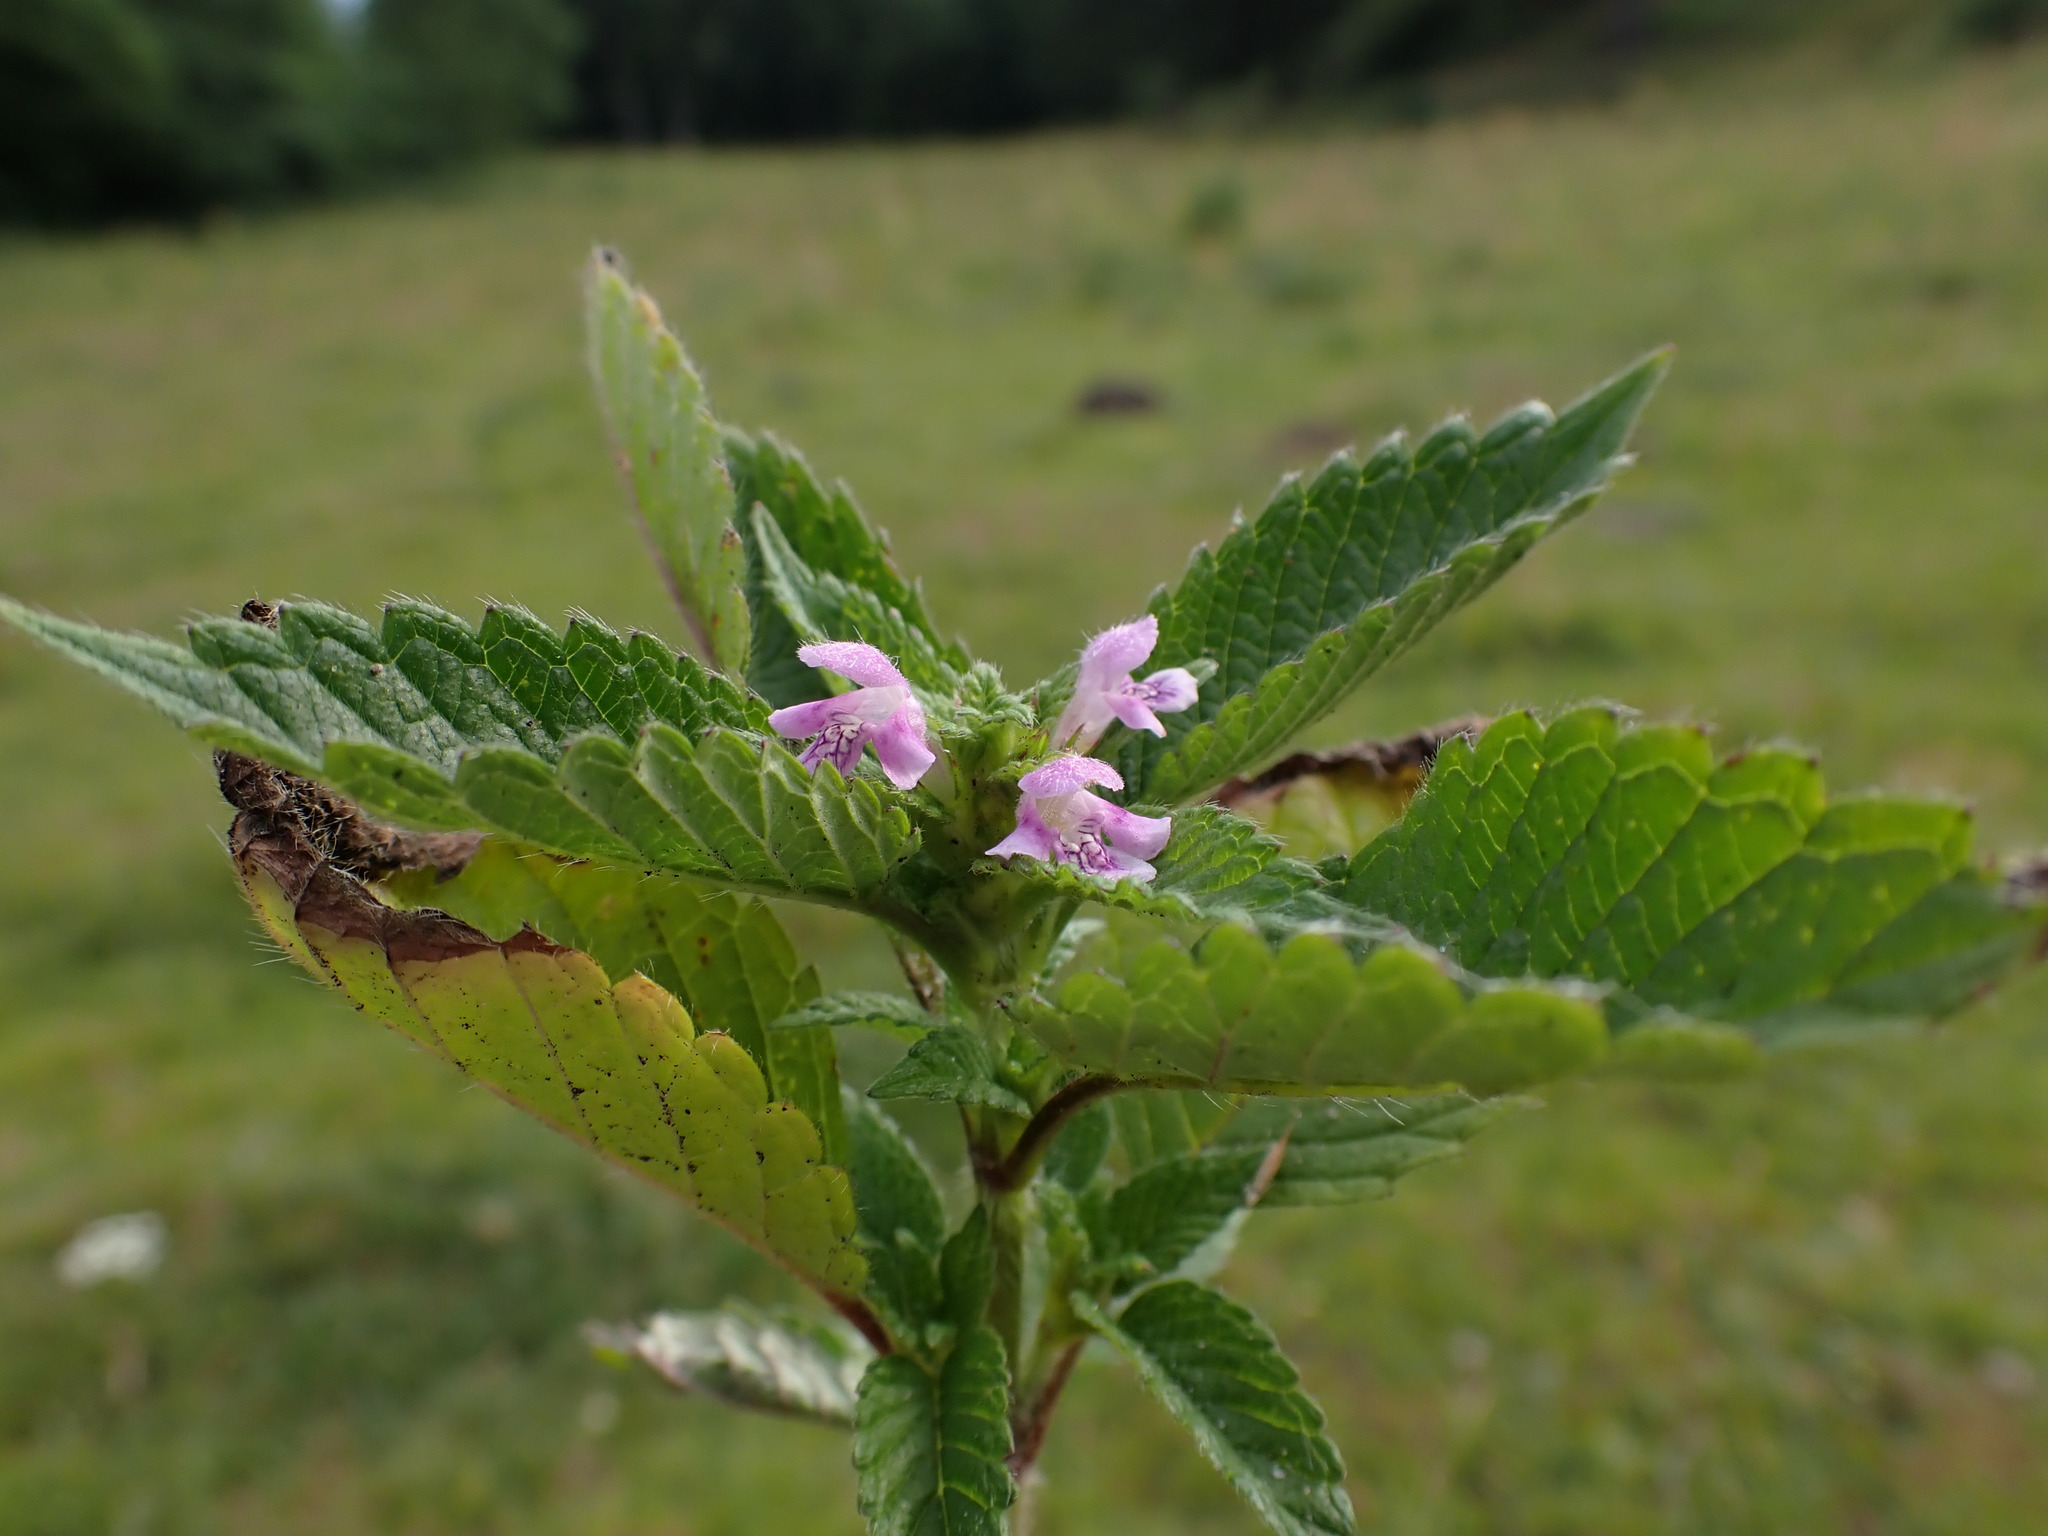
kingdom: Plantae
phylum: Tracheophyta
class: Magnoliopsida
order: Lamiales
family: Lamiaceae
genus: Galeopsis
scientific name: Galeopsis tetrahit
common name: Common hemp-nettle
